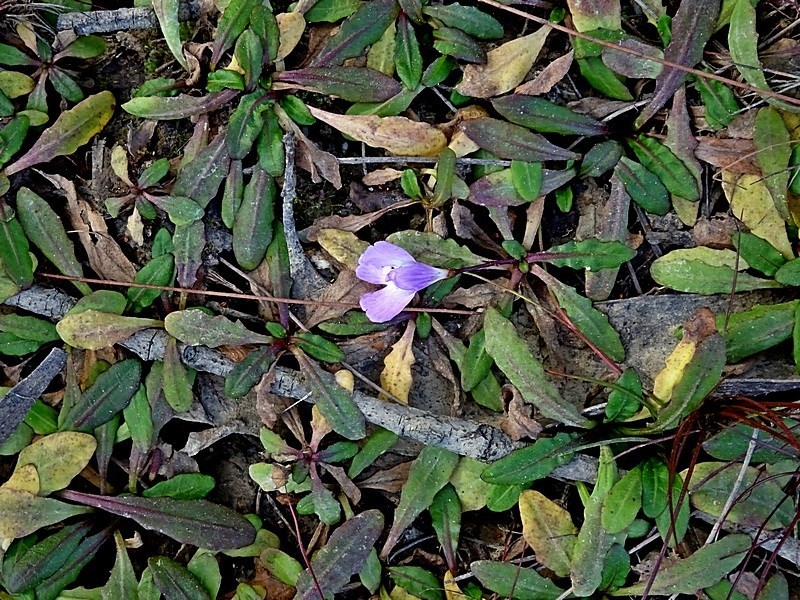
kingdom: Plantae
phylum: Tracheophyta
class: Magnoliopsida
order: Lamiales
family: Mazaceae
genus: Mazus
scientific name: Mazus pumilio
